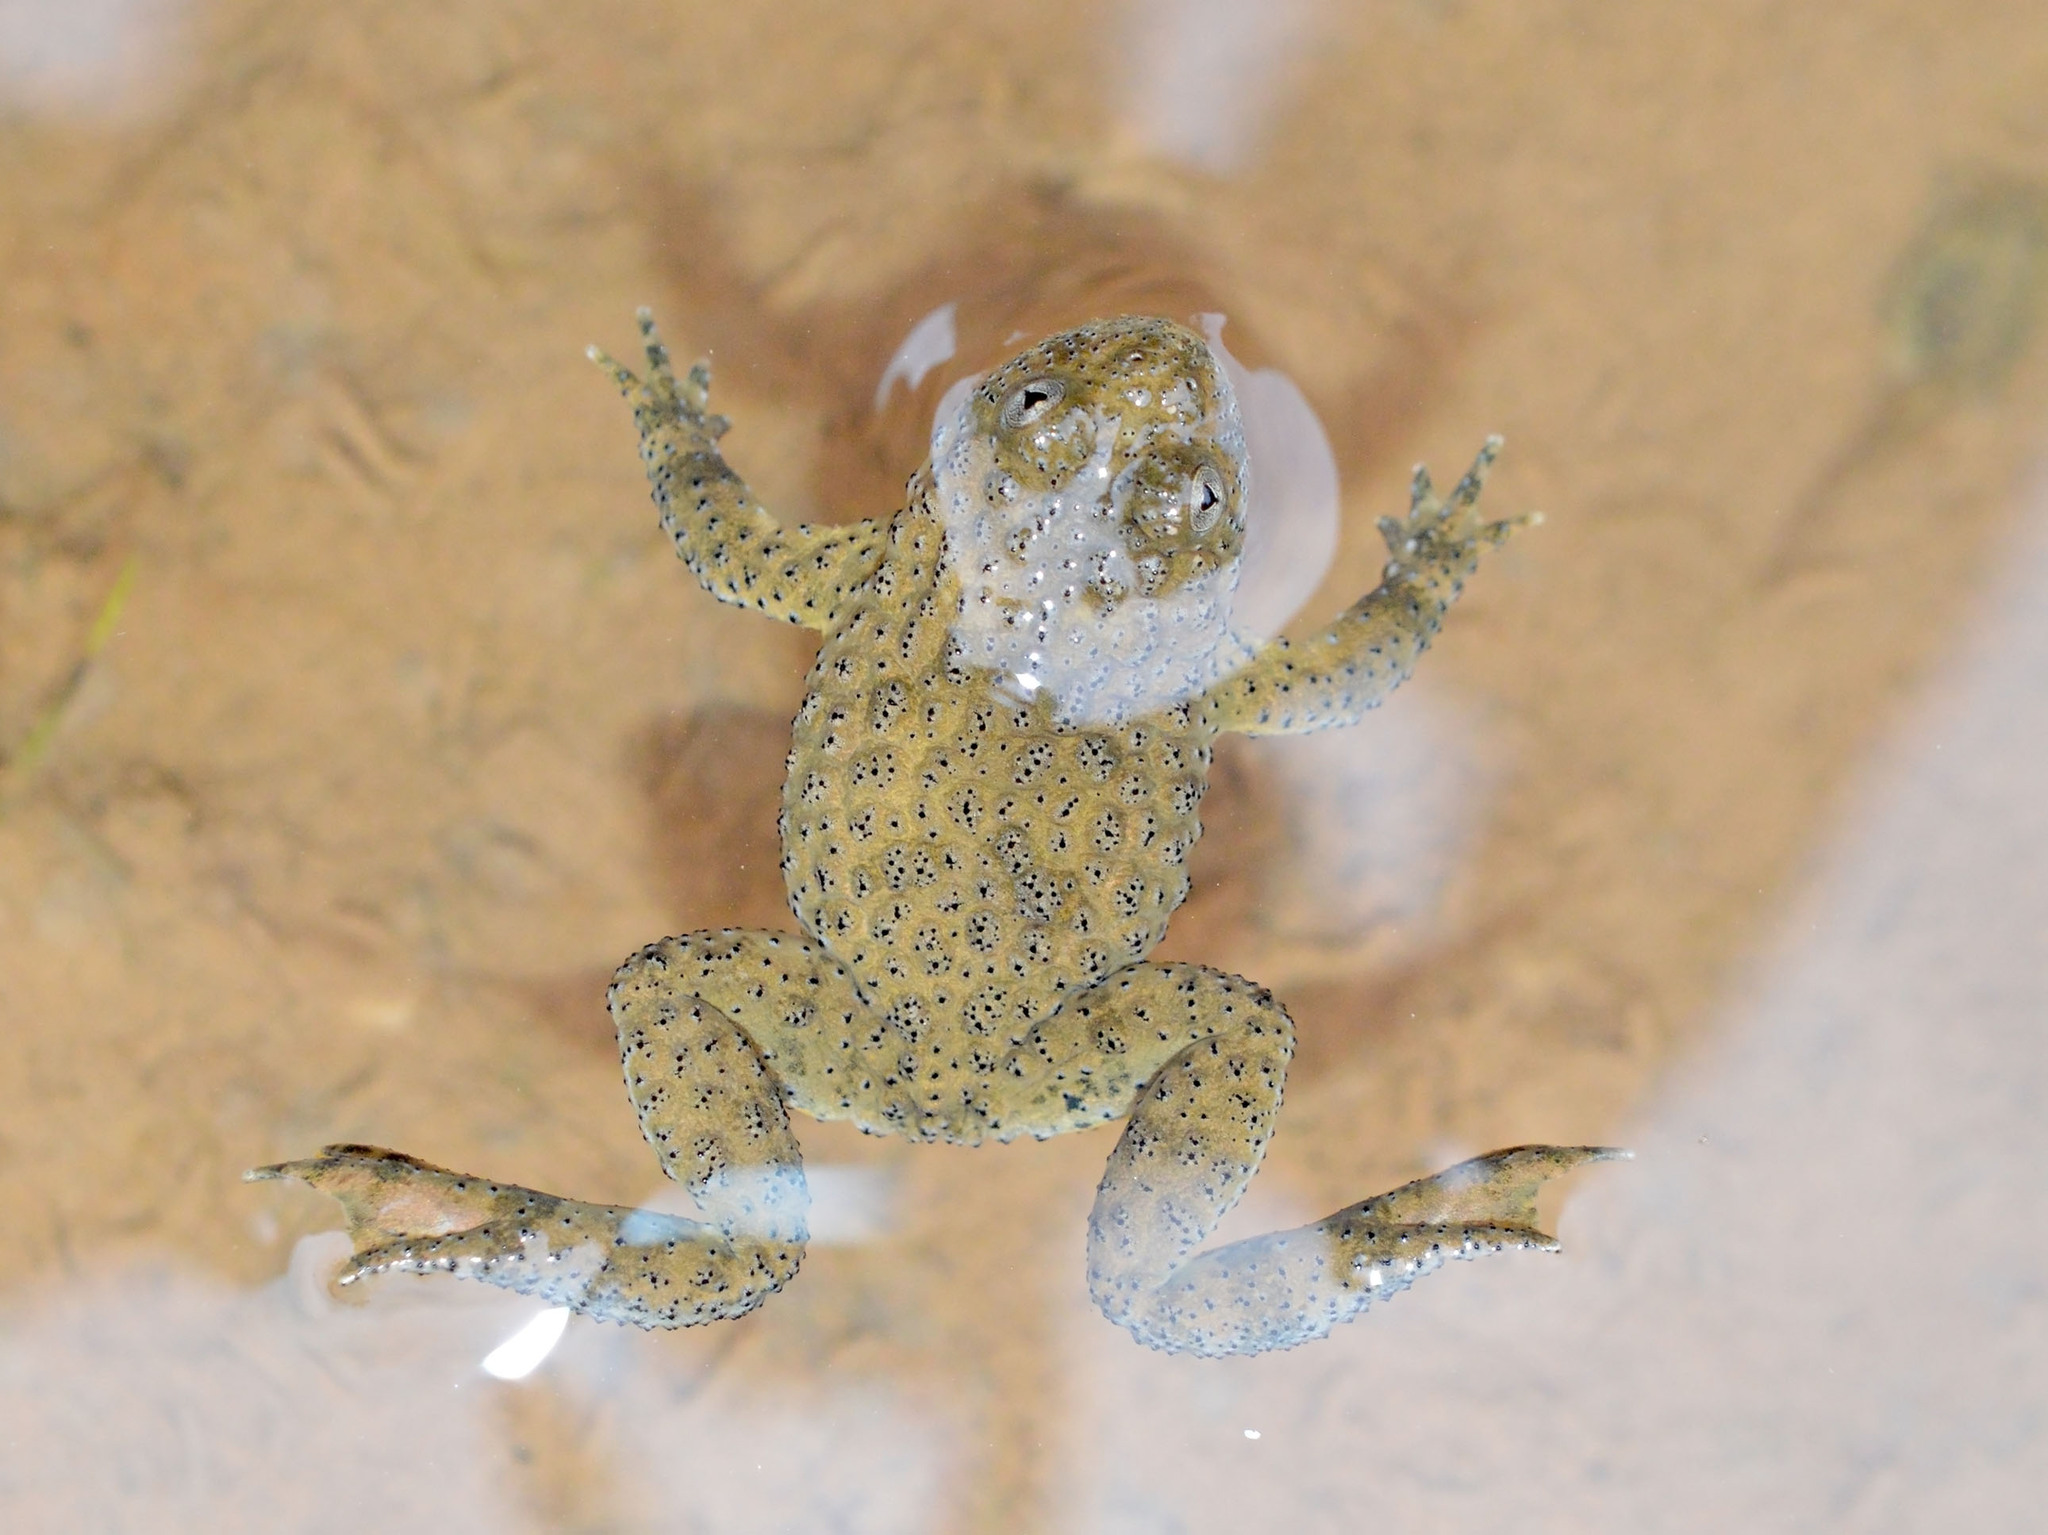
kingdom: Animalia
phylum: Chordata
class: Amphibia
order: Anura
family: Bombinatoridae
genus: Bombina
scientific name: Bombina variegata
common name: Yellow-bellied toad
